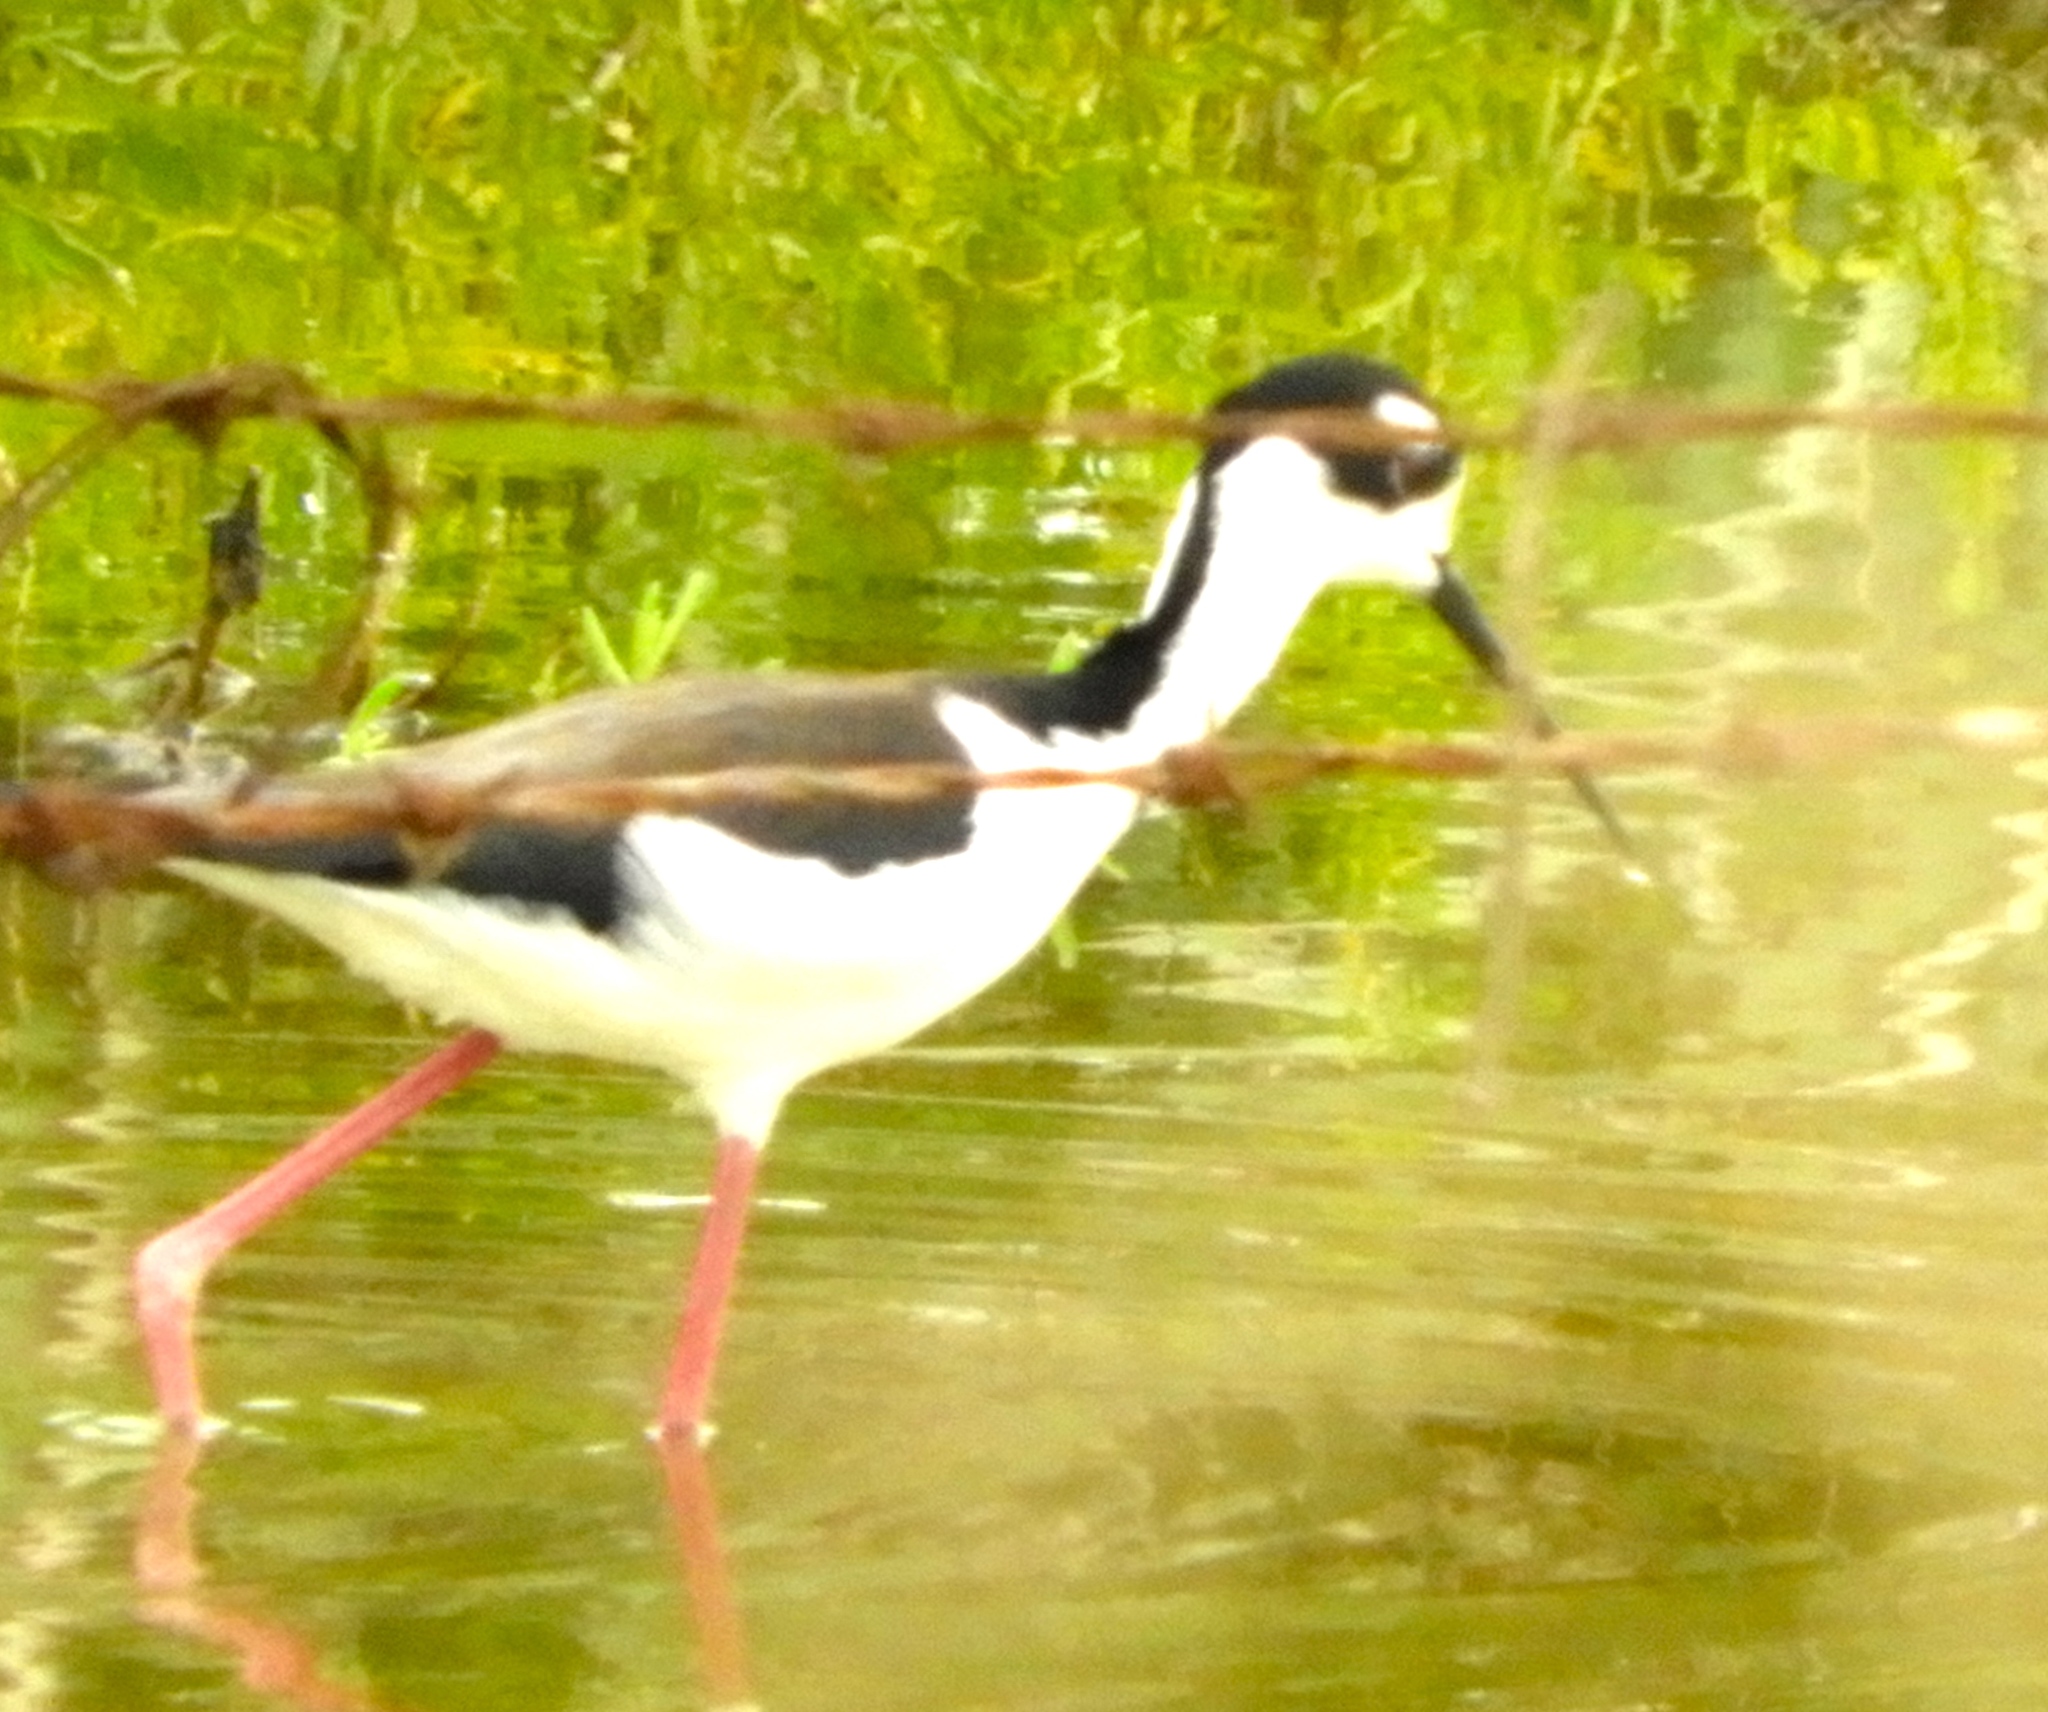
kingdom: Animalia
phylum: Chordata
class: Aves
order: Charadriiformes
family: Recurvirostridae
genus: Himantopus
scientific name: Himantopus mexicanus
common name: Black-necked stilt
